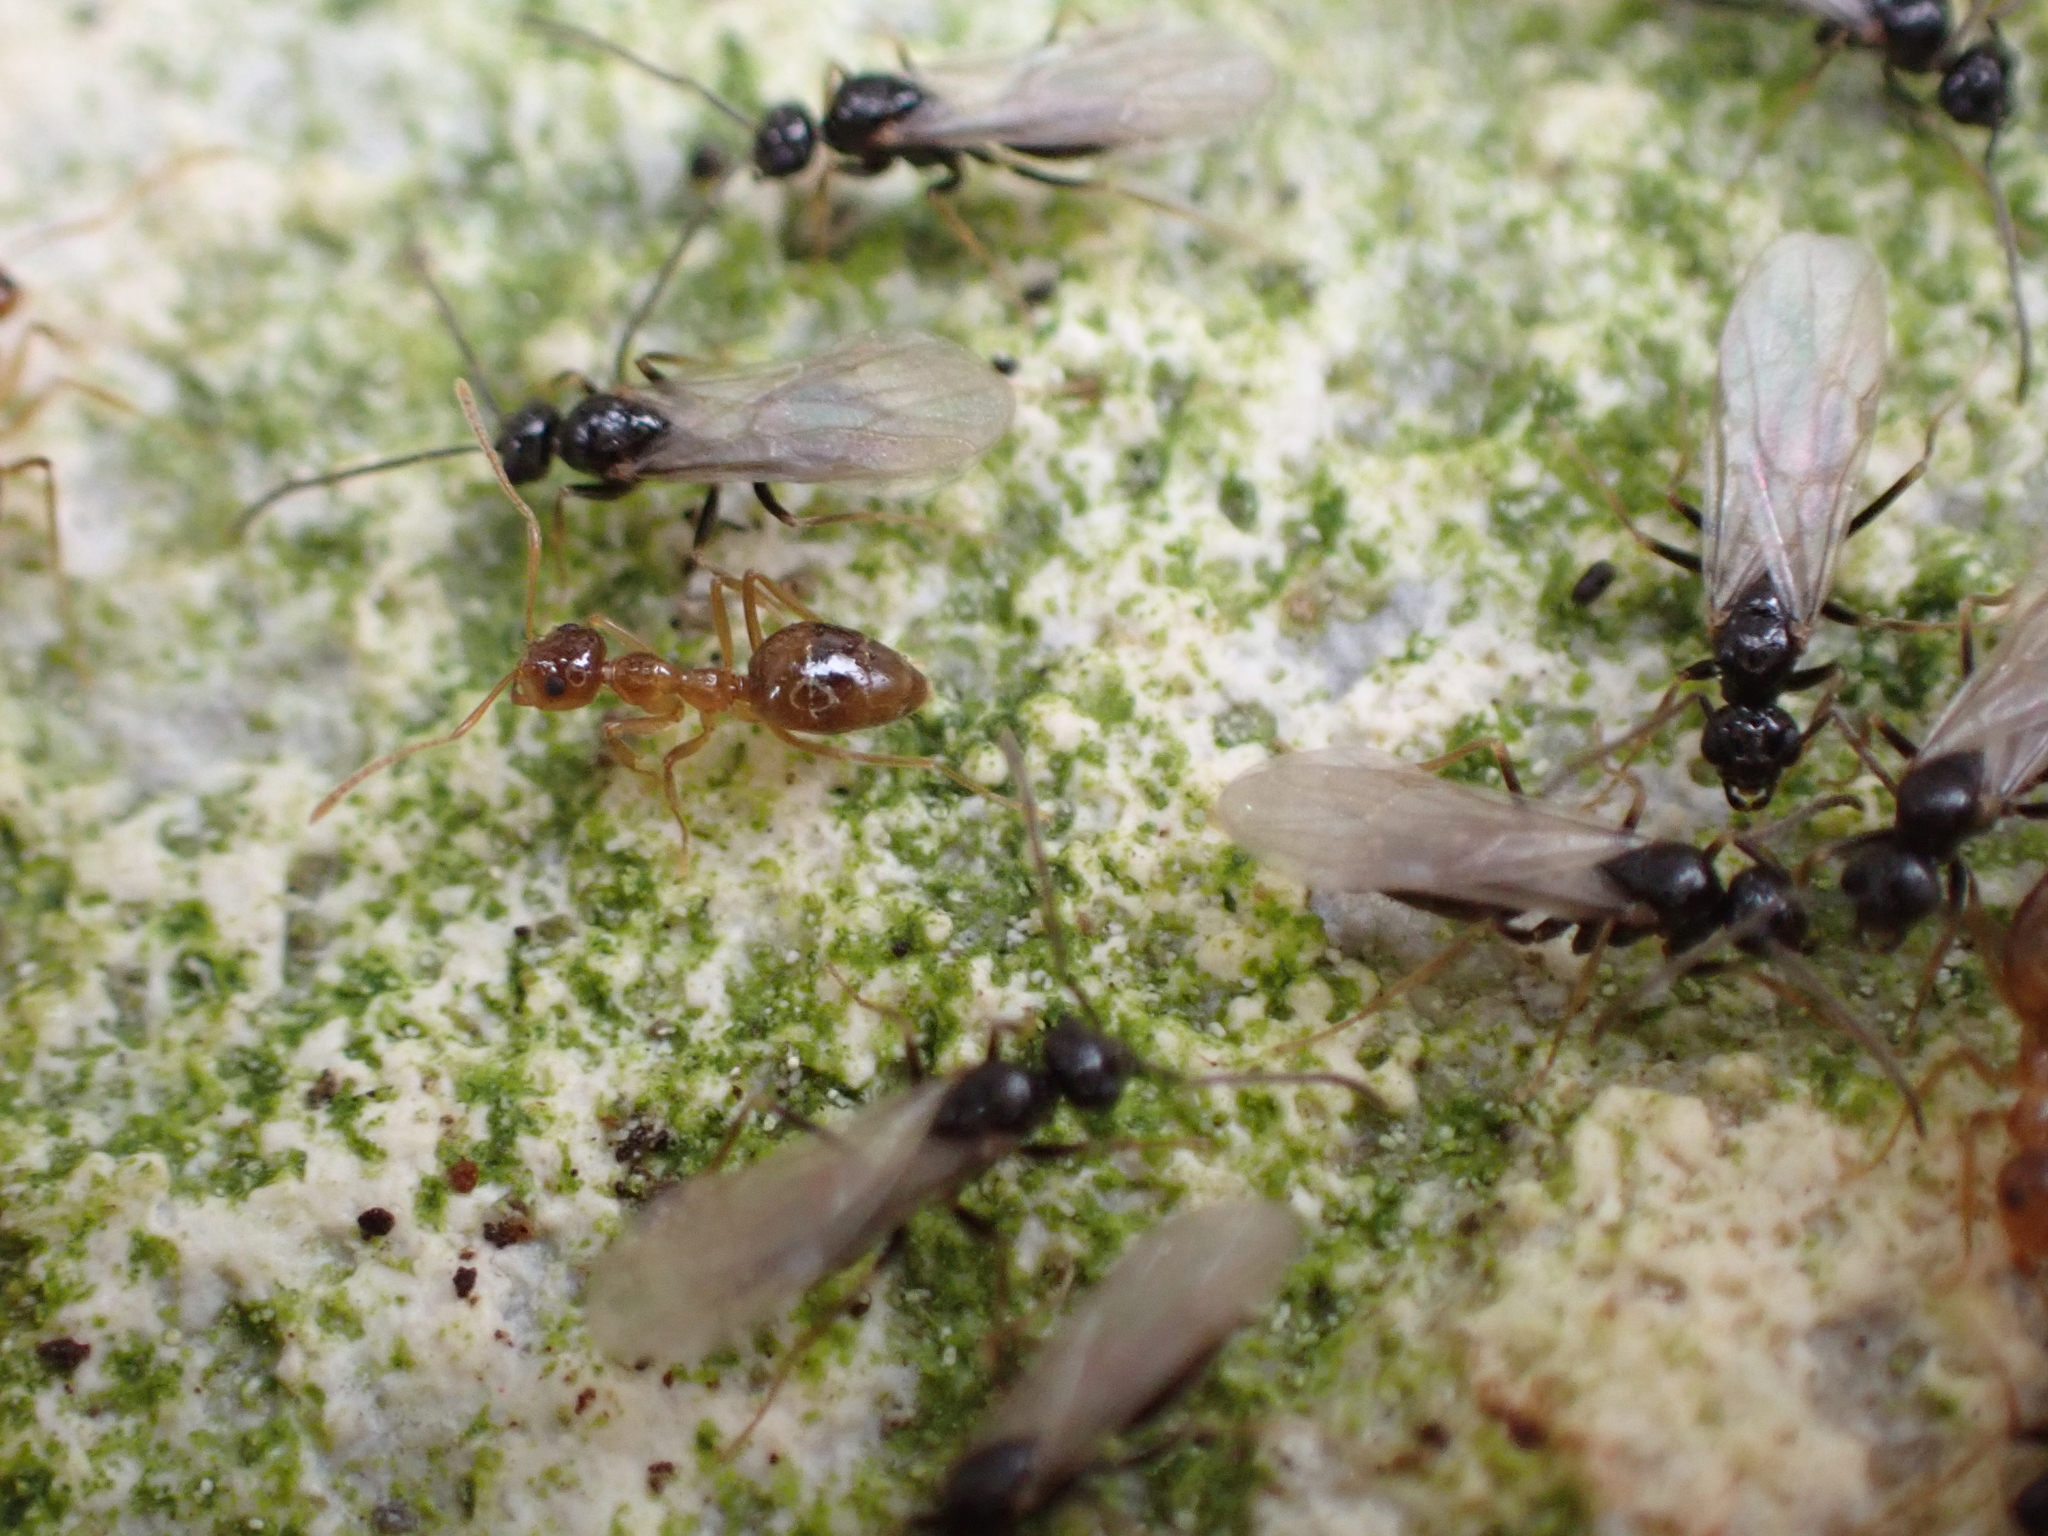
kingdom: Animalia
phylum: Arthropoda
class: Insecta
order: Hymenoptera
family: Formicidae
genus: Prenolepis
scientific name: Prenolepis imparis
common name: Small honey ant
